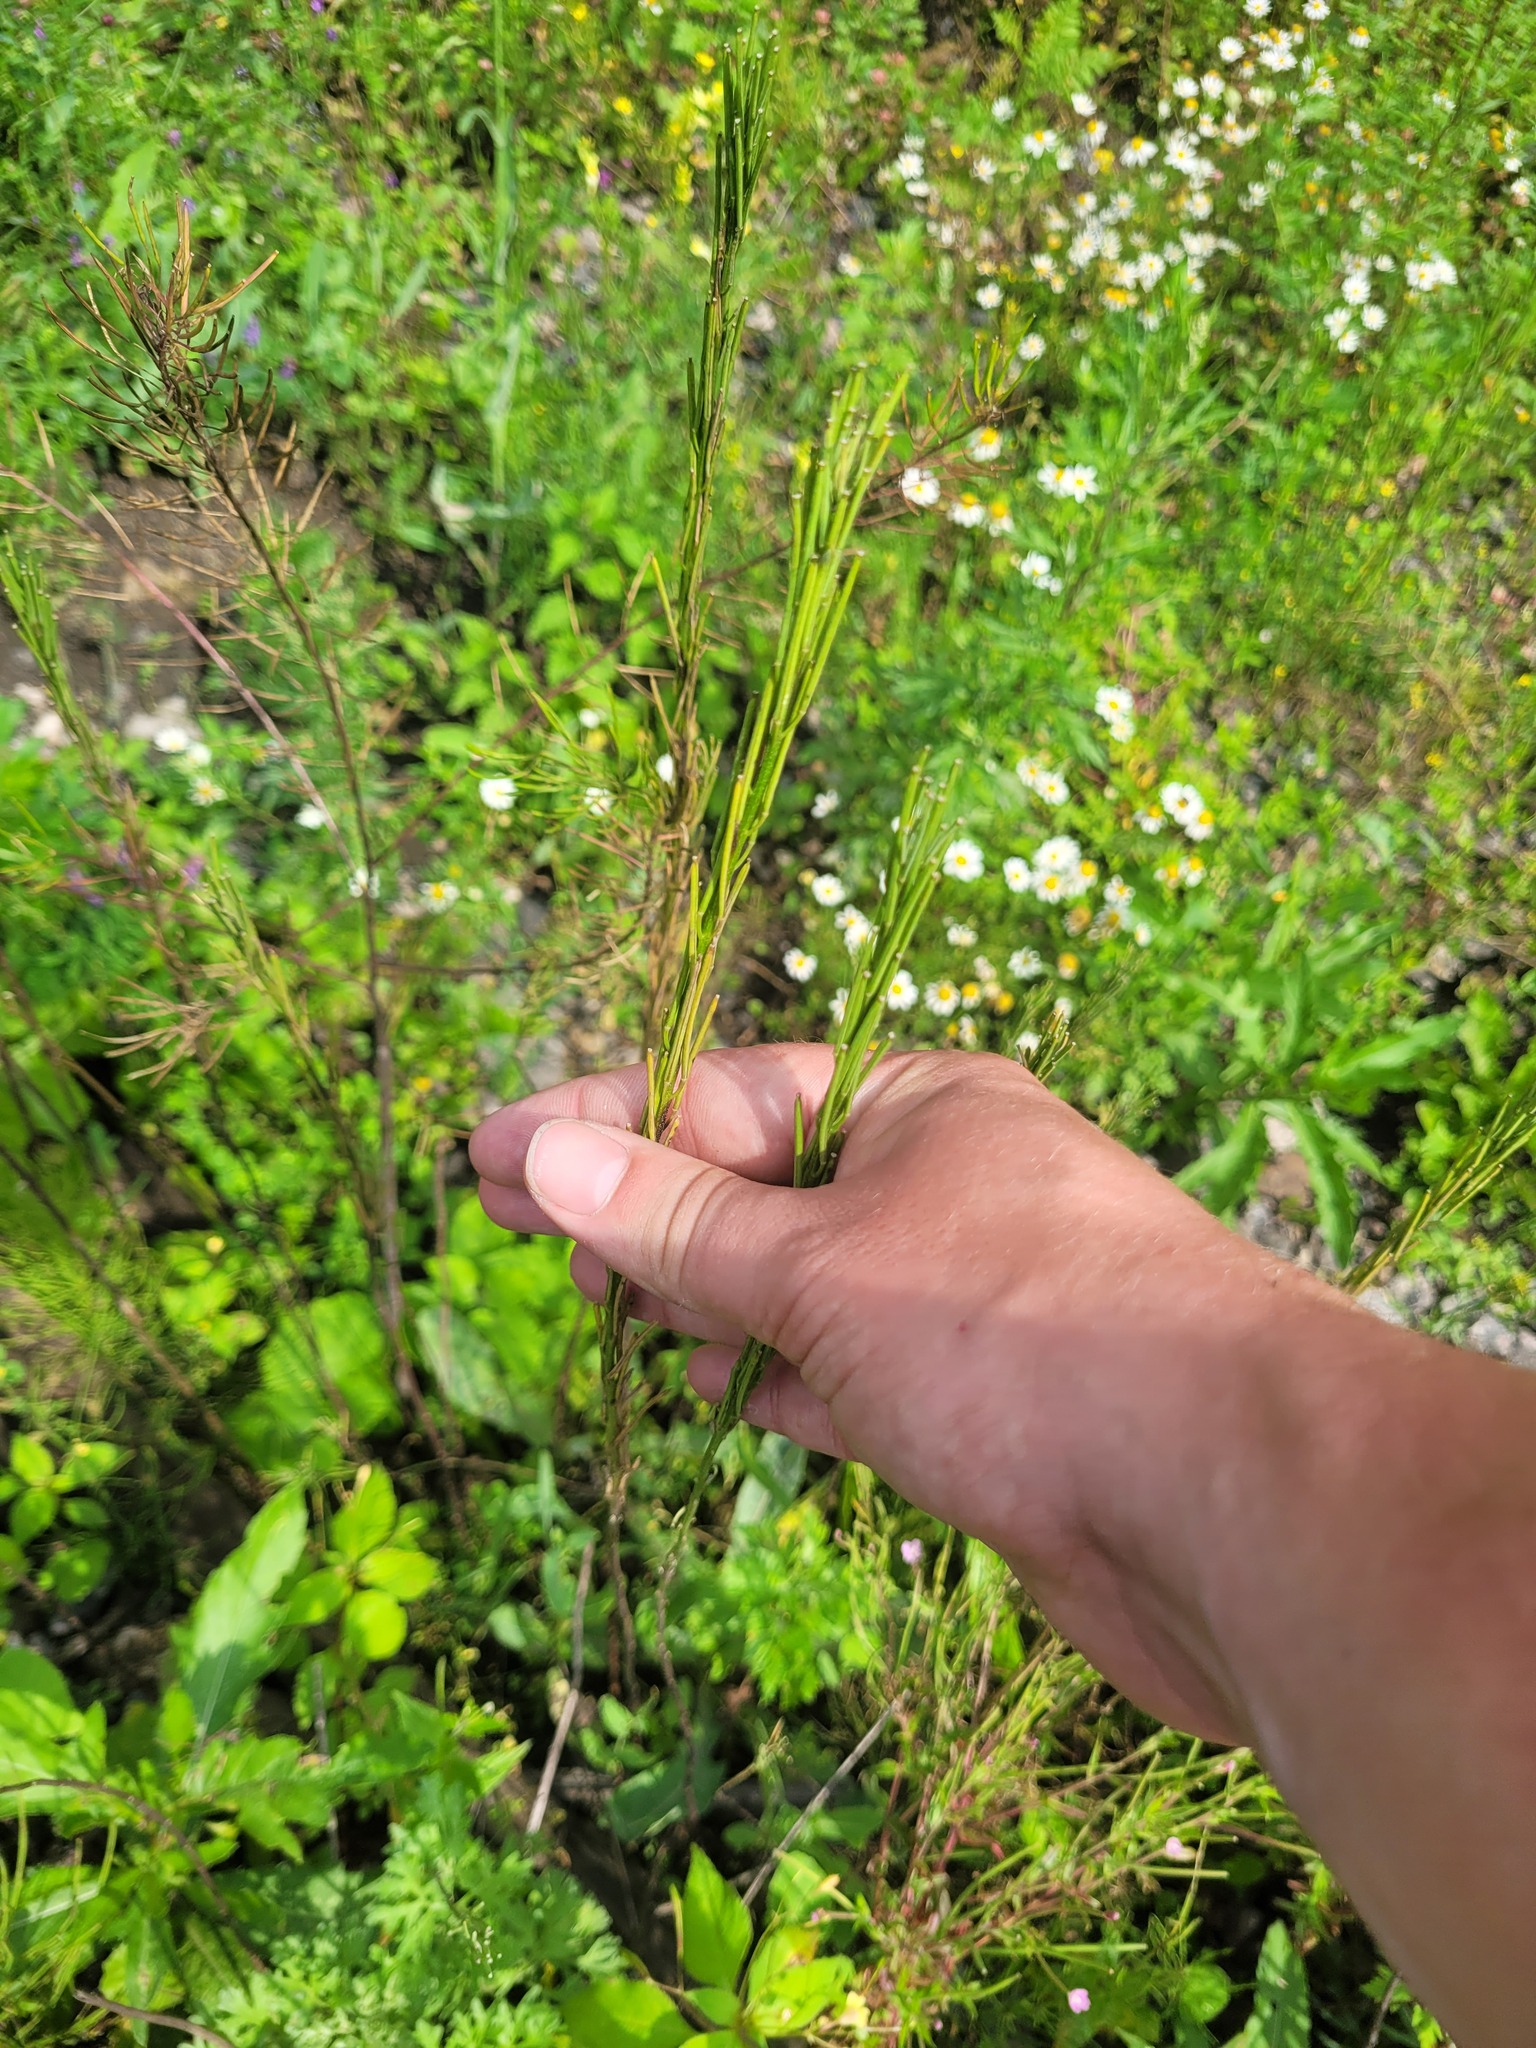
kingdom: Plantae
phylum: Tracheophyta
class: Magnoliopsida
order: Brassicales
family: Brassicaceae
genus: Erysimum
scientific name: Erysimum hieraciifolium
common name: European wallflower
